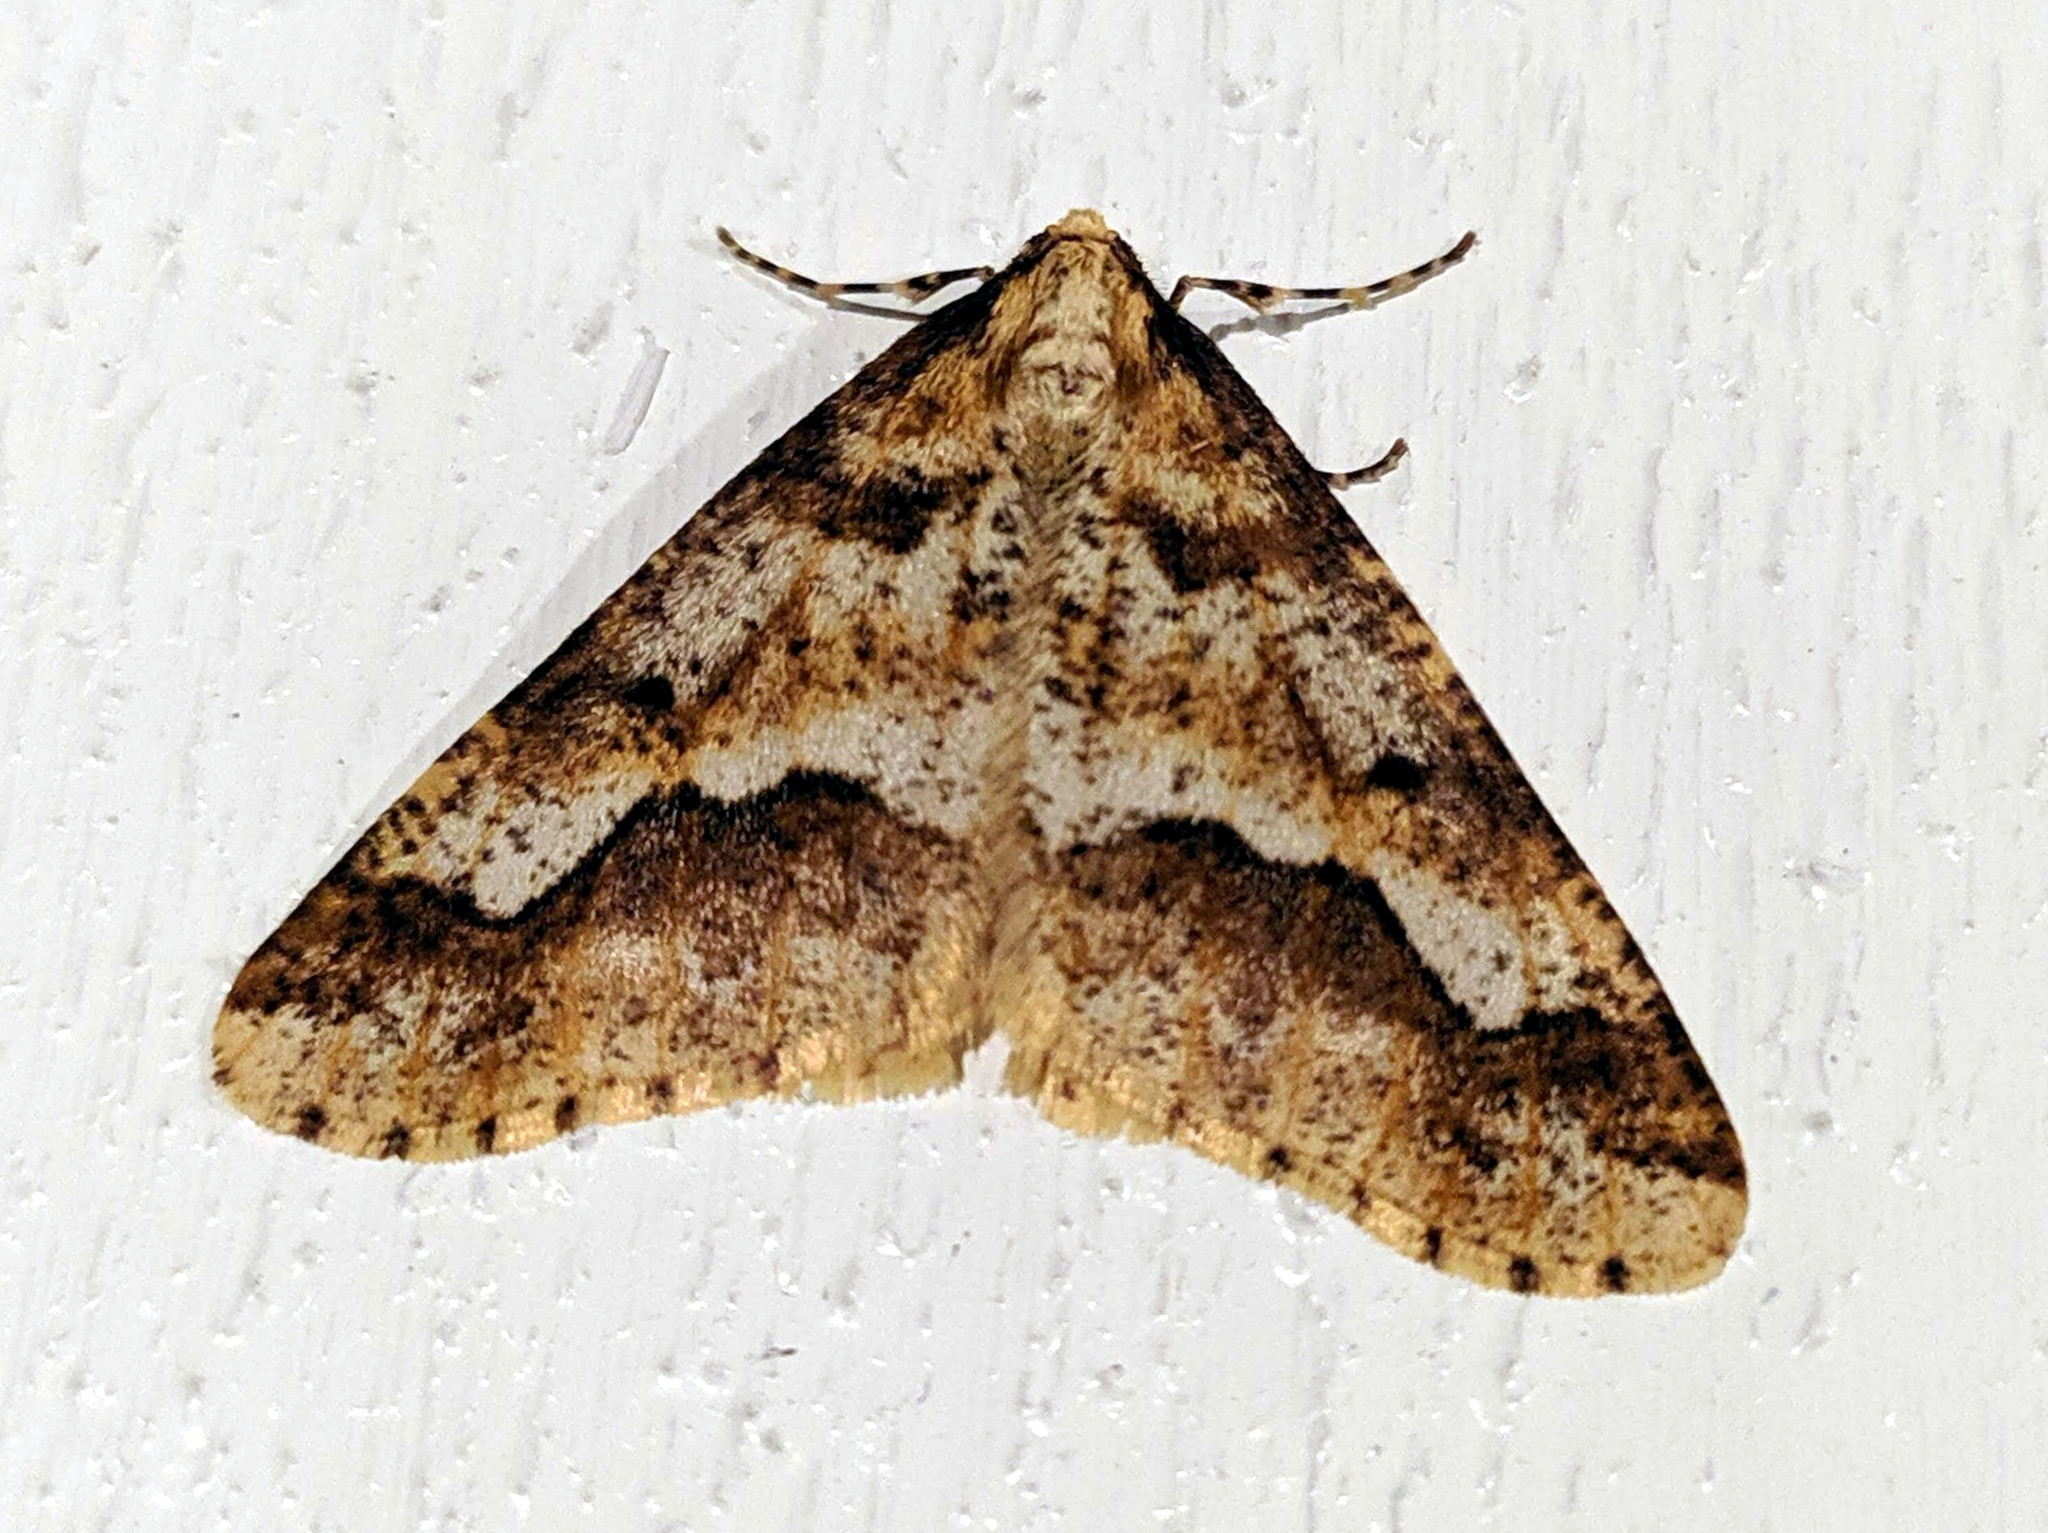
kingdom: Animalia
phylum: Arthropoda
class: Insecta
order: Lepidoptera
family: Geometridae
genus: Erannis
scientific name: Erannis defoliaria
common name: Mottled umber
